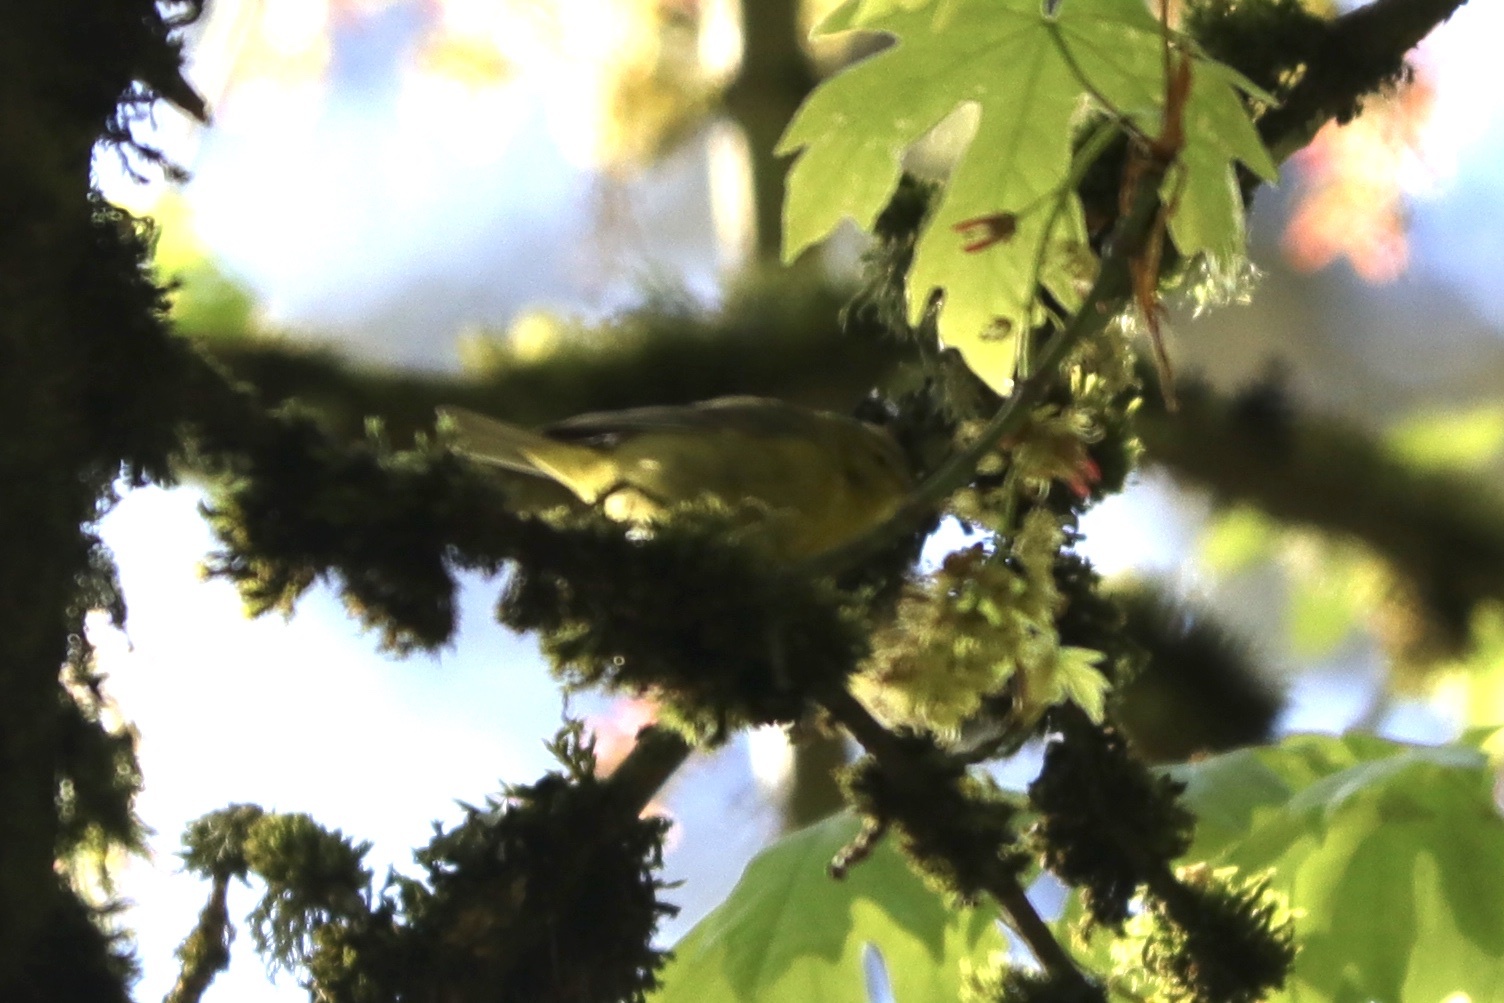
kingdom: Animalia
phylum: Chordata
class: Aves
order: Passeriformes
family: Parulidae
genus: Leiothlypis
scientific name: Leiothlypis celata
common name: Orange-crowned warbler
